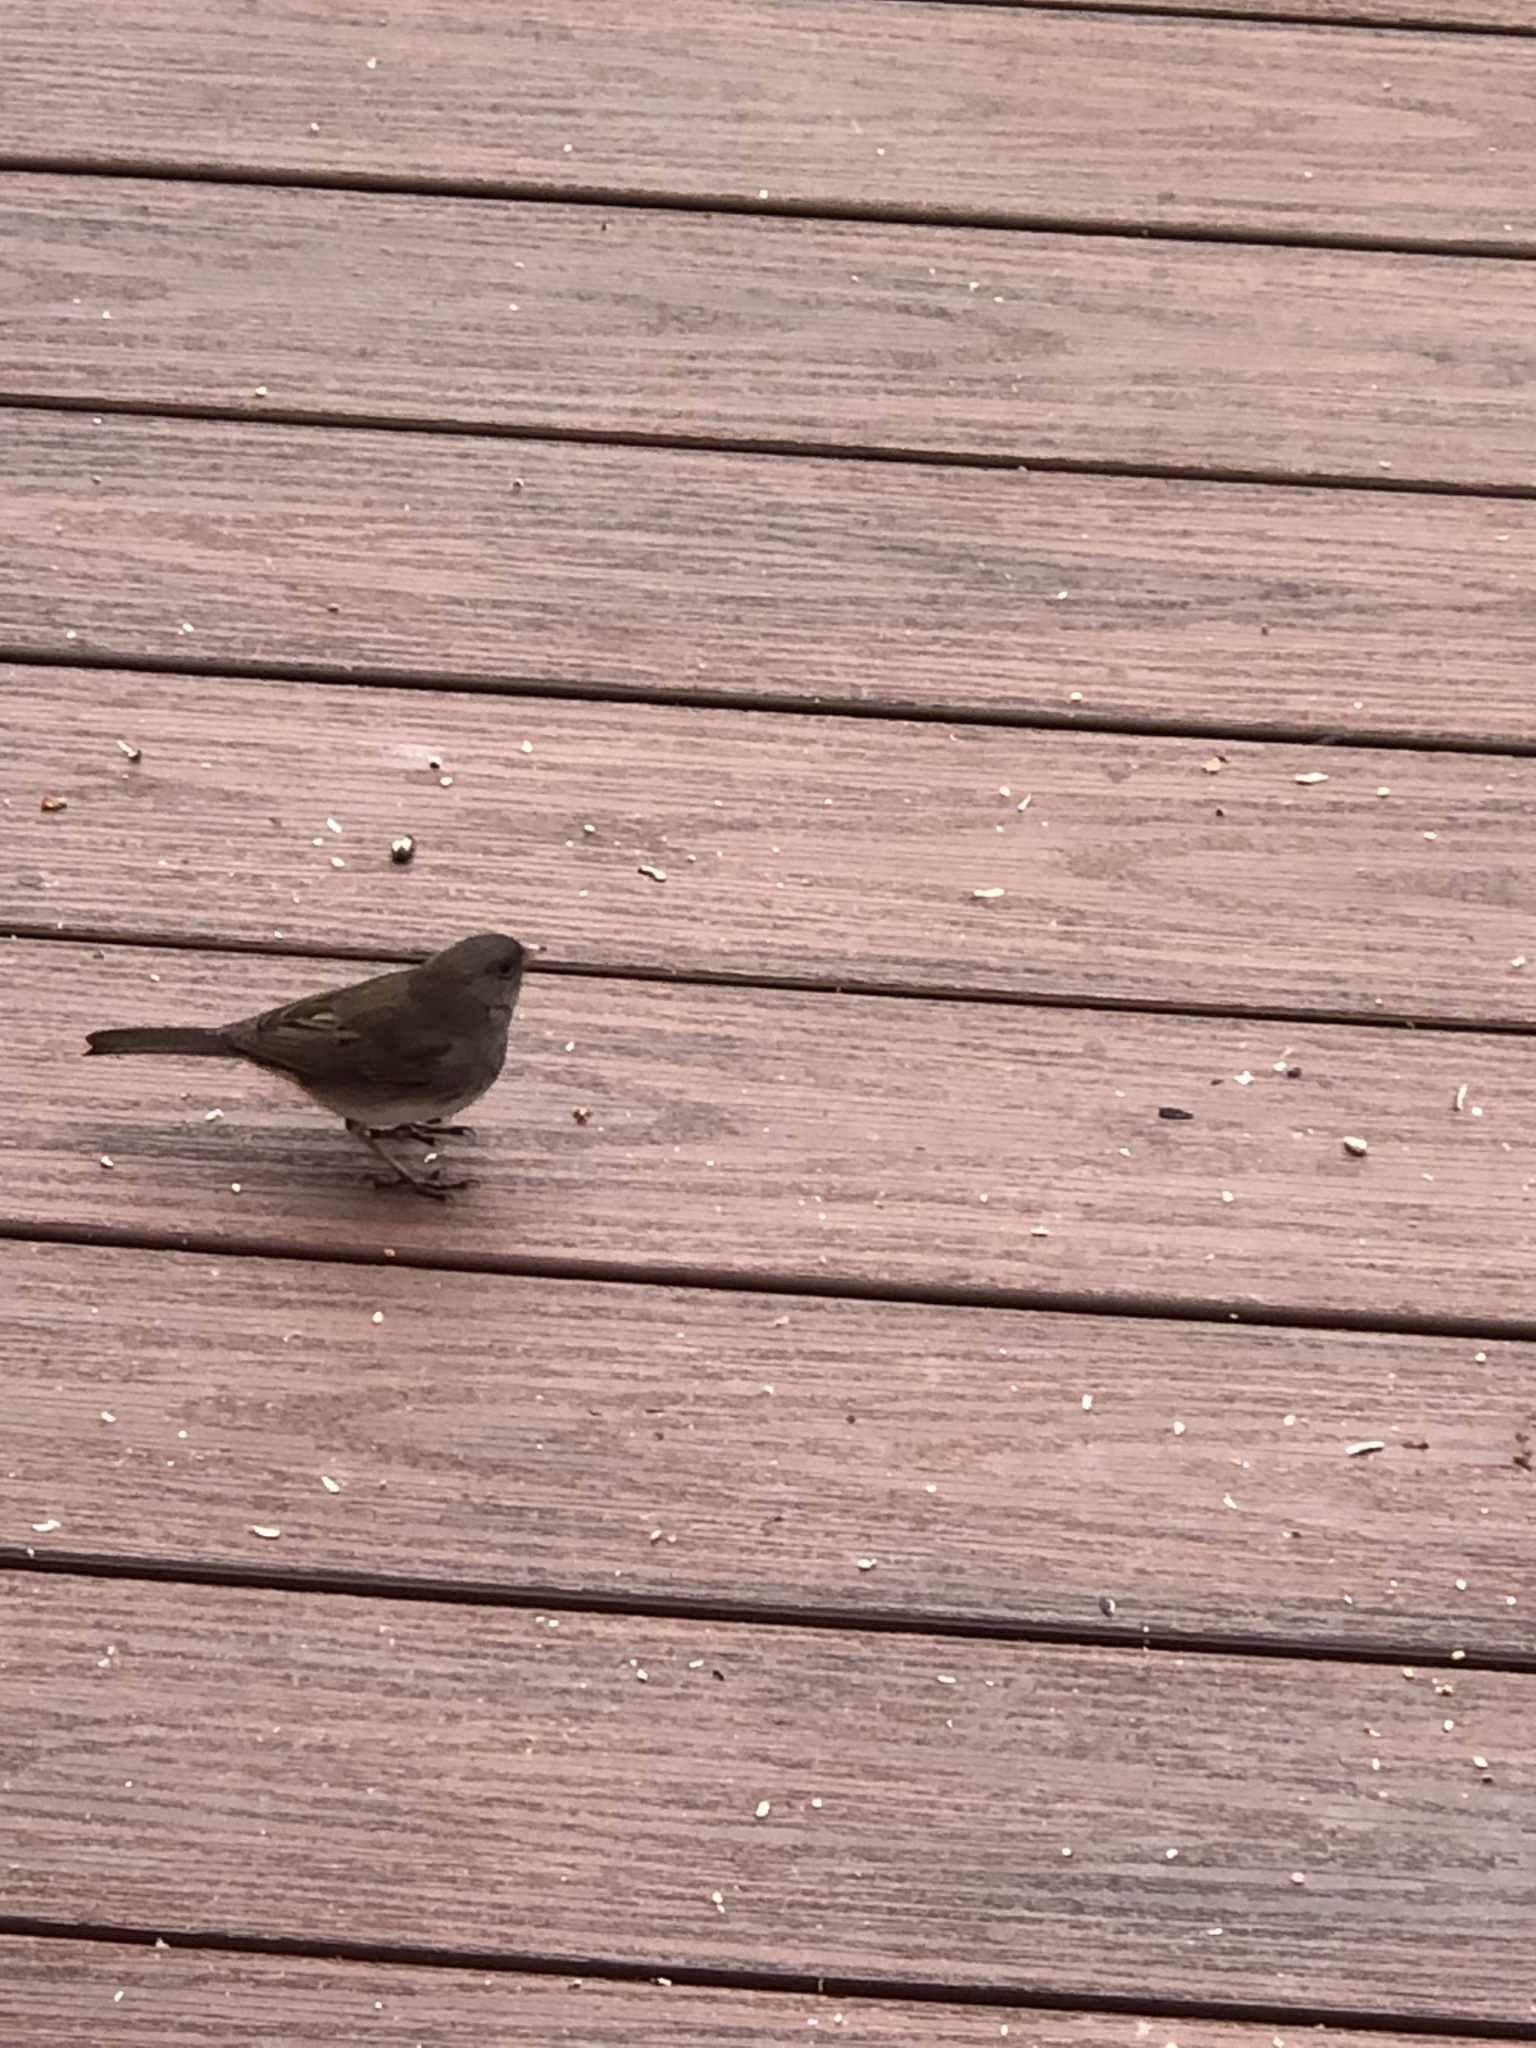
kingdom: Animalia
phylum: Chordata
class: Aves
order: Passeriformes
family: Passerellidae
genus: Junco
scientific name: Junco hyemalis
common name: Dark-eyed junco
